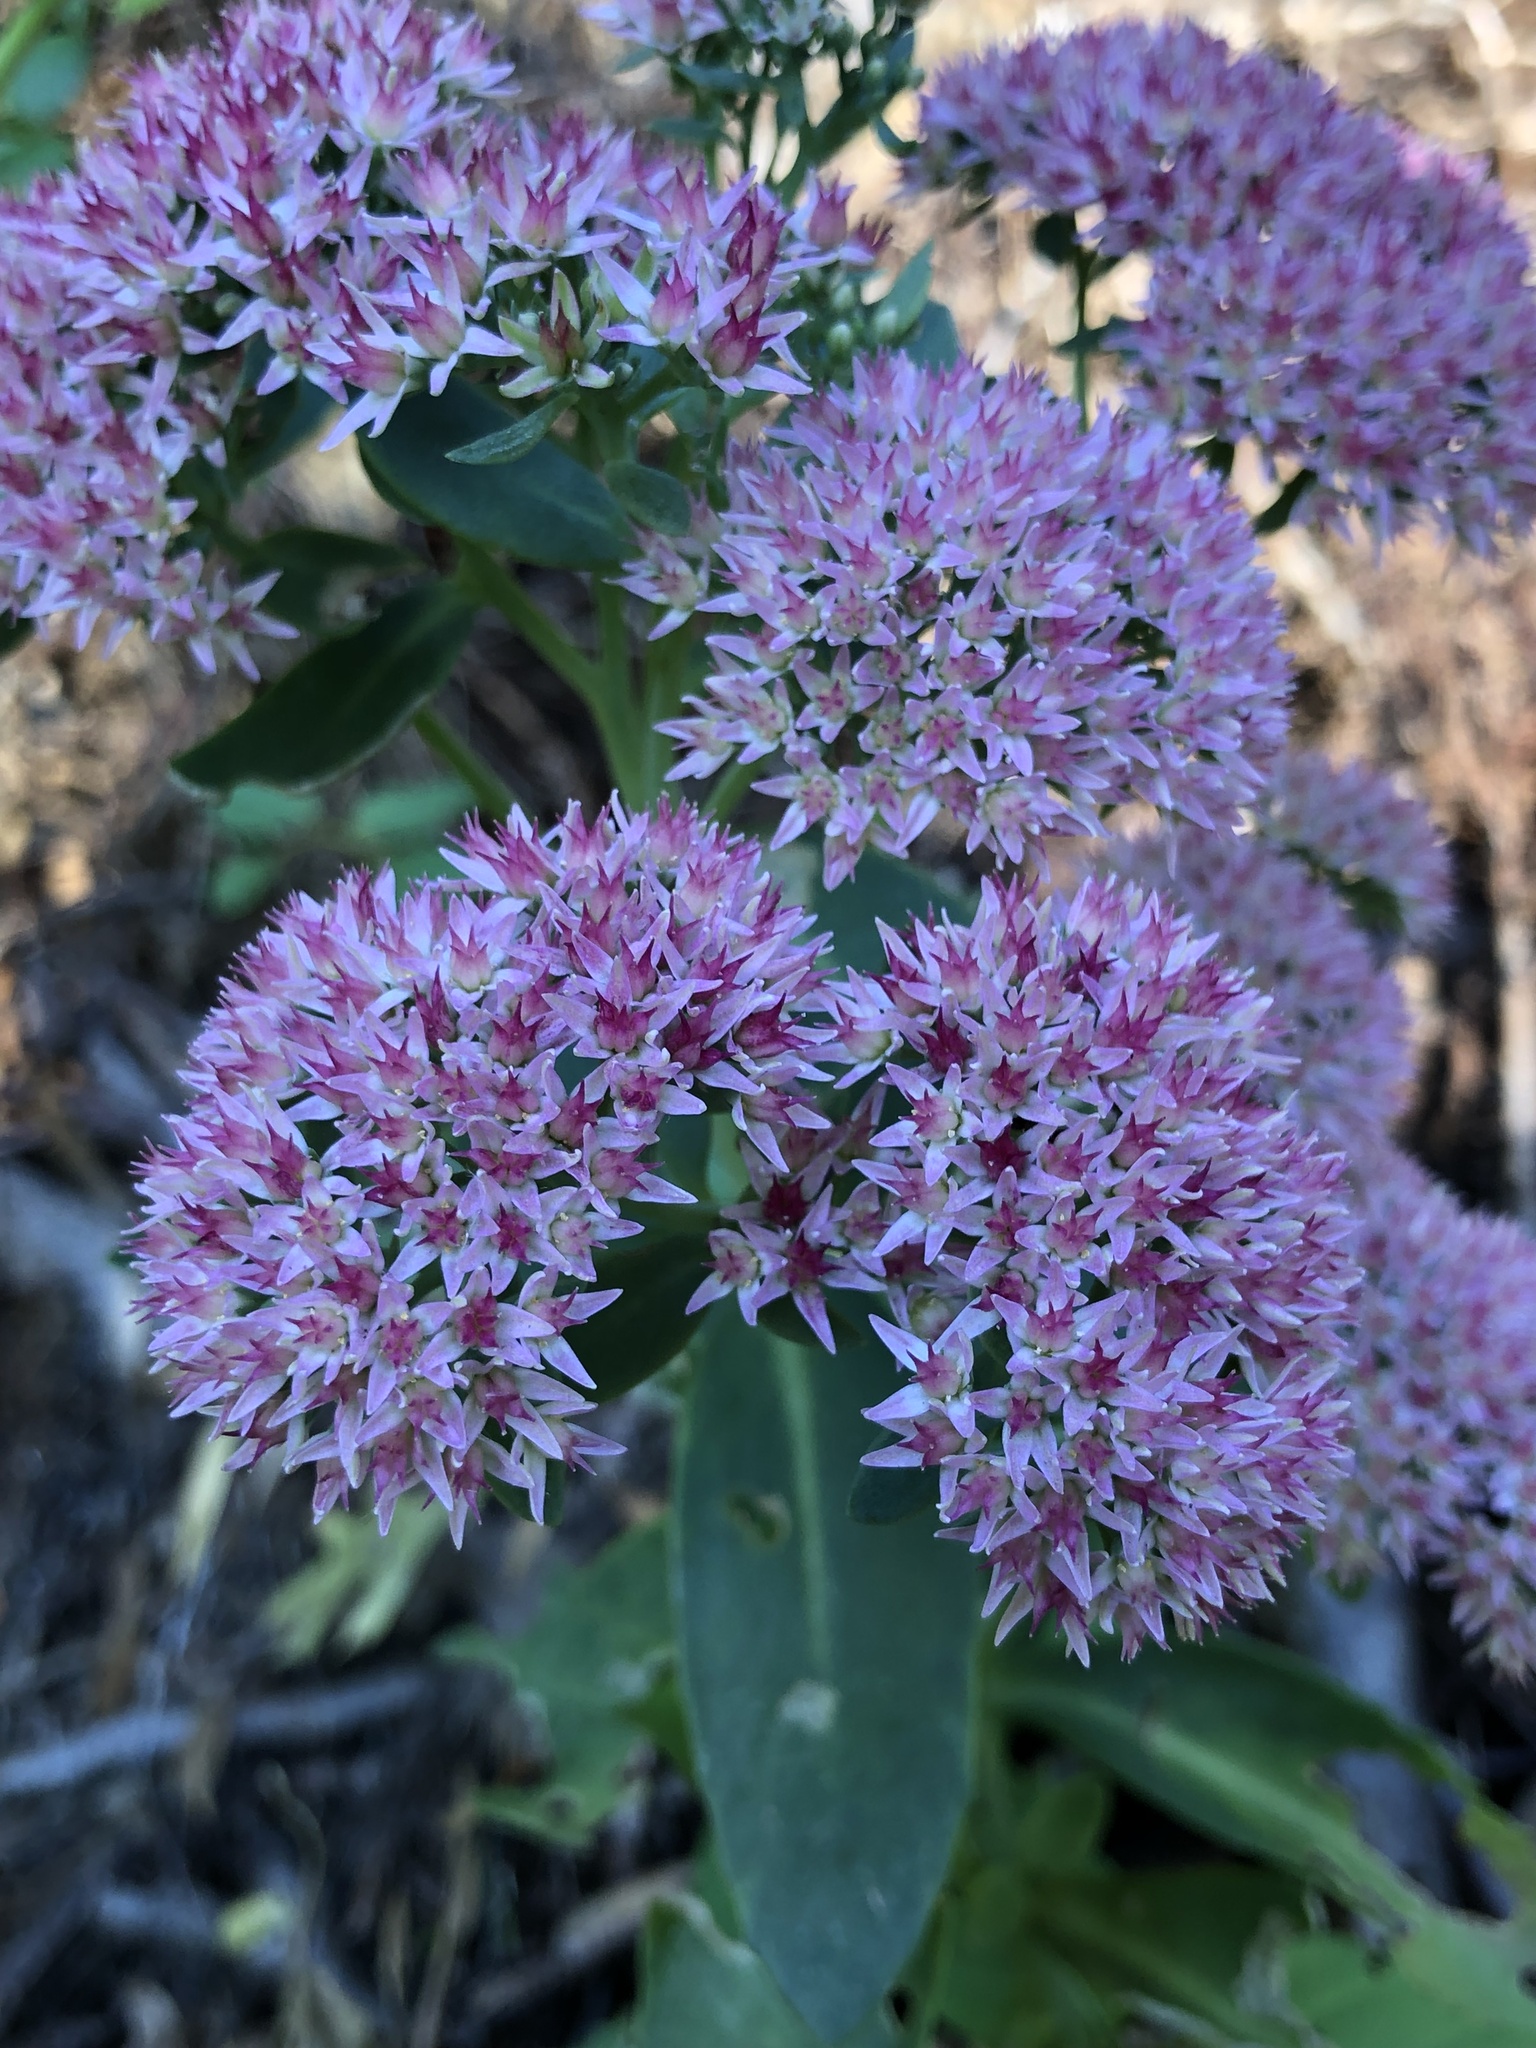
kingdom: Plantae
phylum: Tracheophyta
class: Magnoliopsida
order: Saxifragales
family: Crassulaceae
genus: Hylotelephium
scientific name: Hylotelephium
